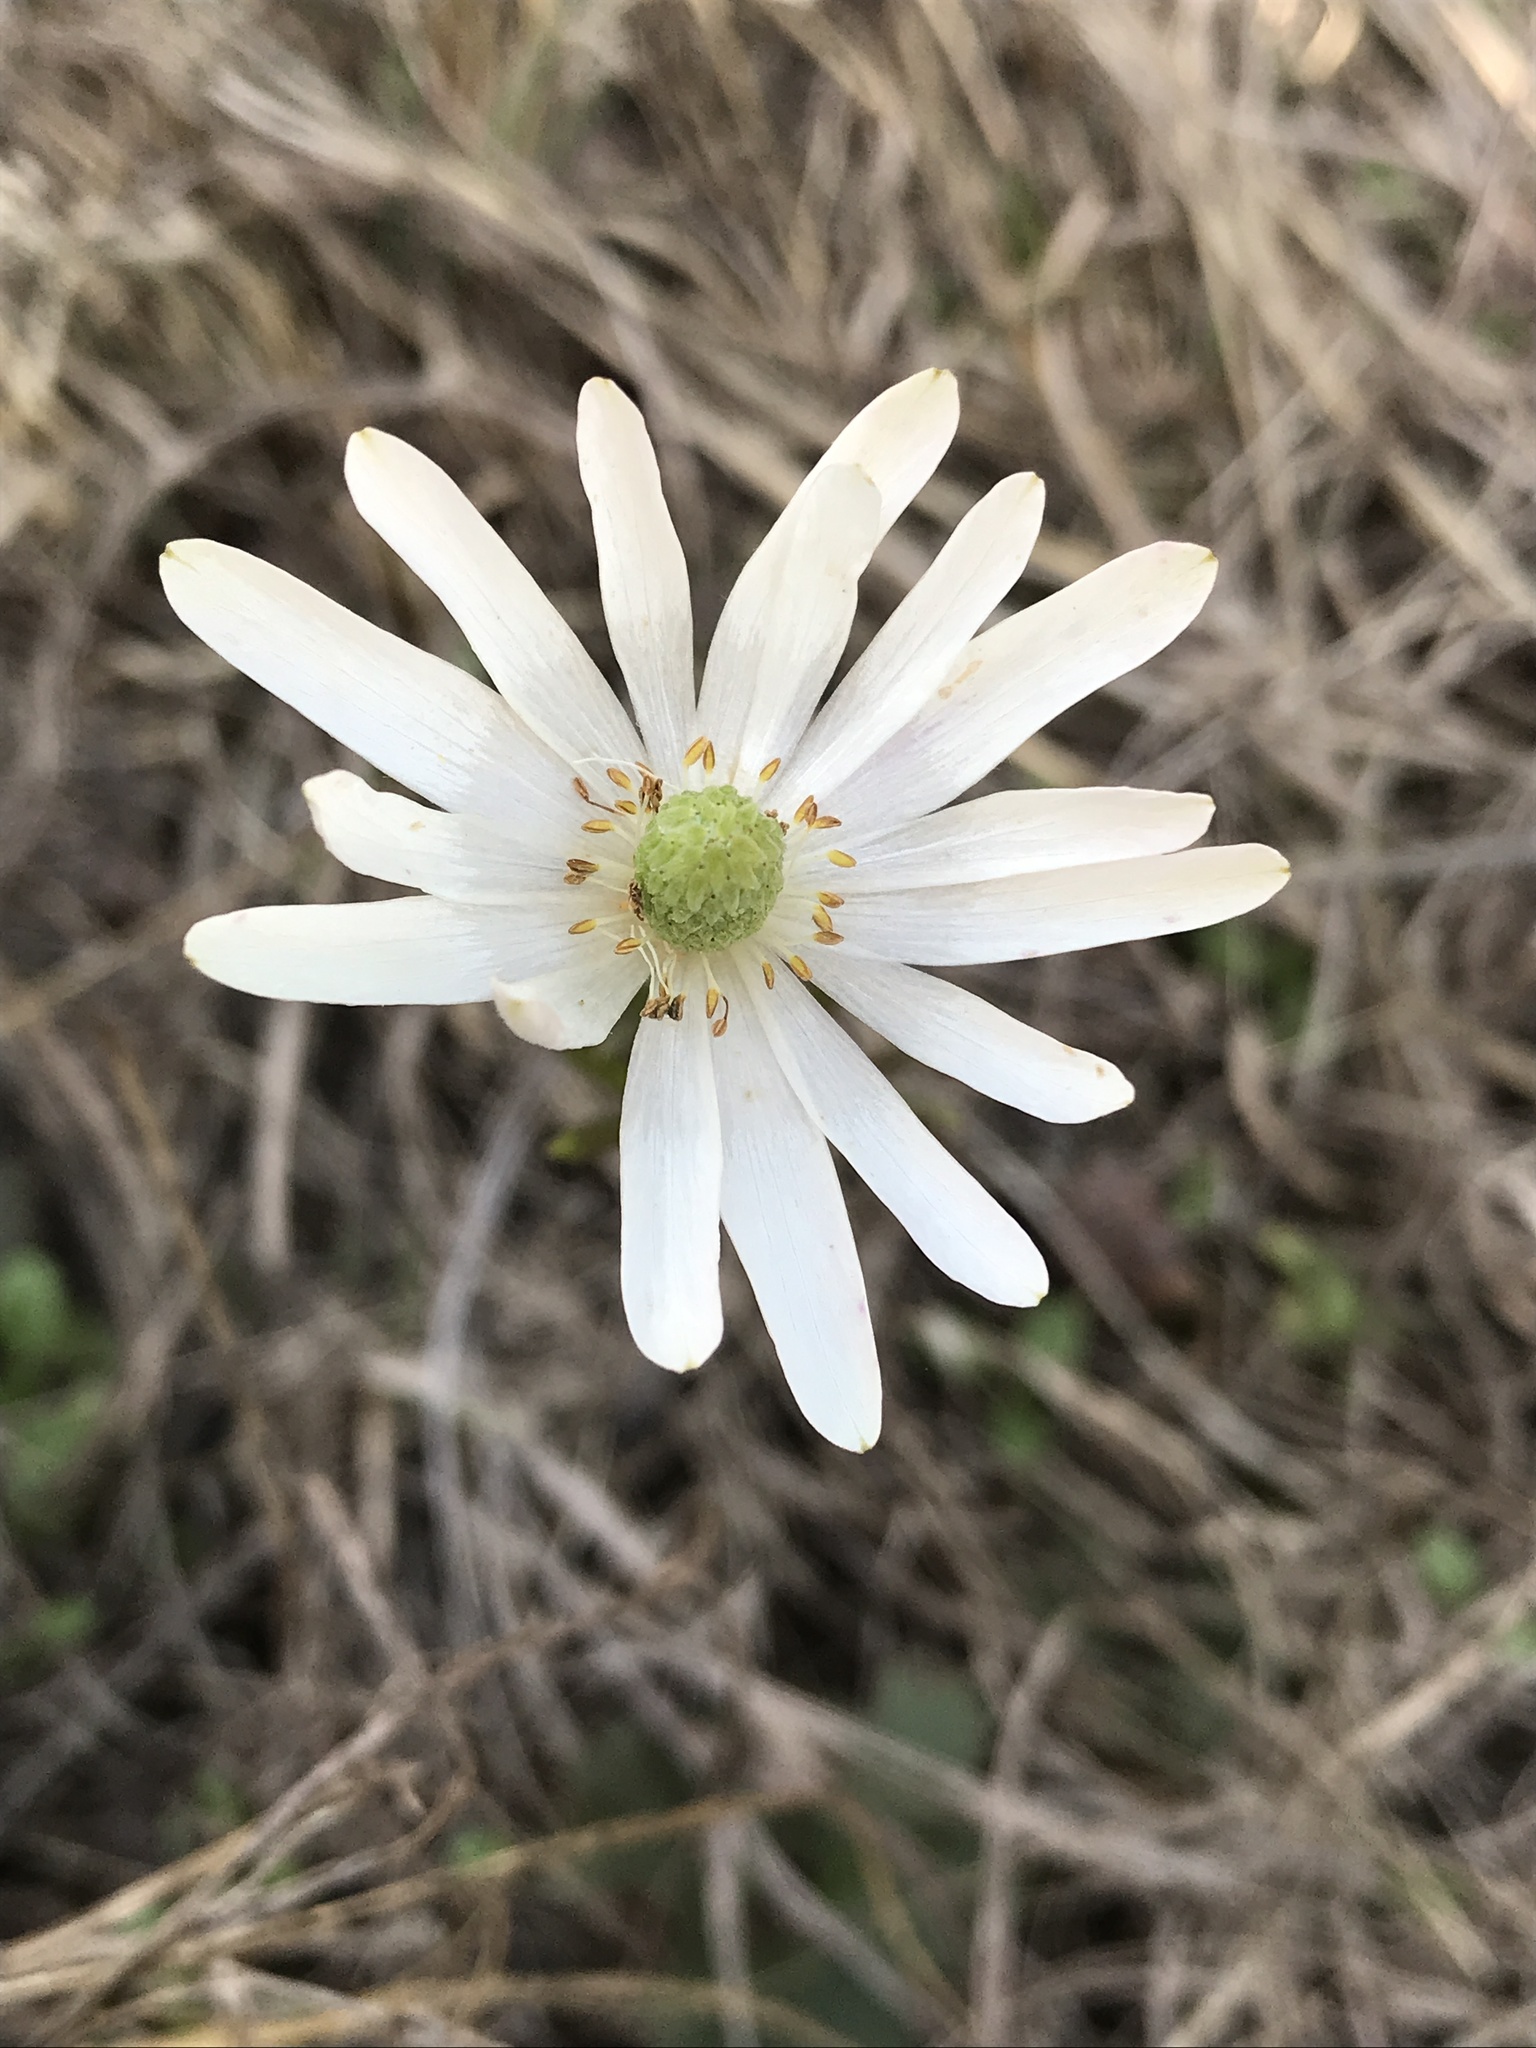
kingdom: Plantae
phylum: Tracheophyta
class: Magnoliopsida
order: Ranunculales
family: Ranunculaceae
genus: Anemone
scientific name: Anemone berlandieri
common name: Ten-petal anemone
